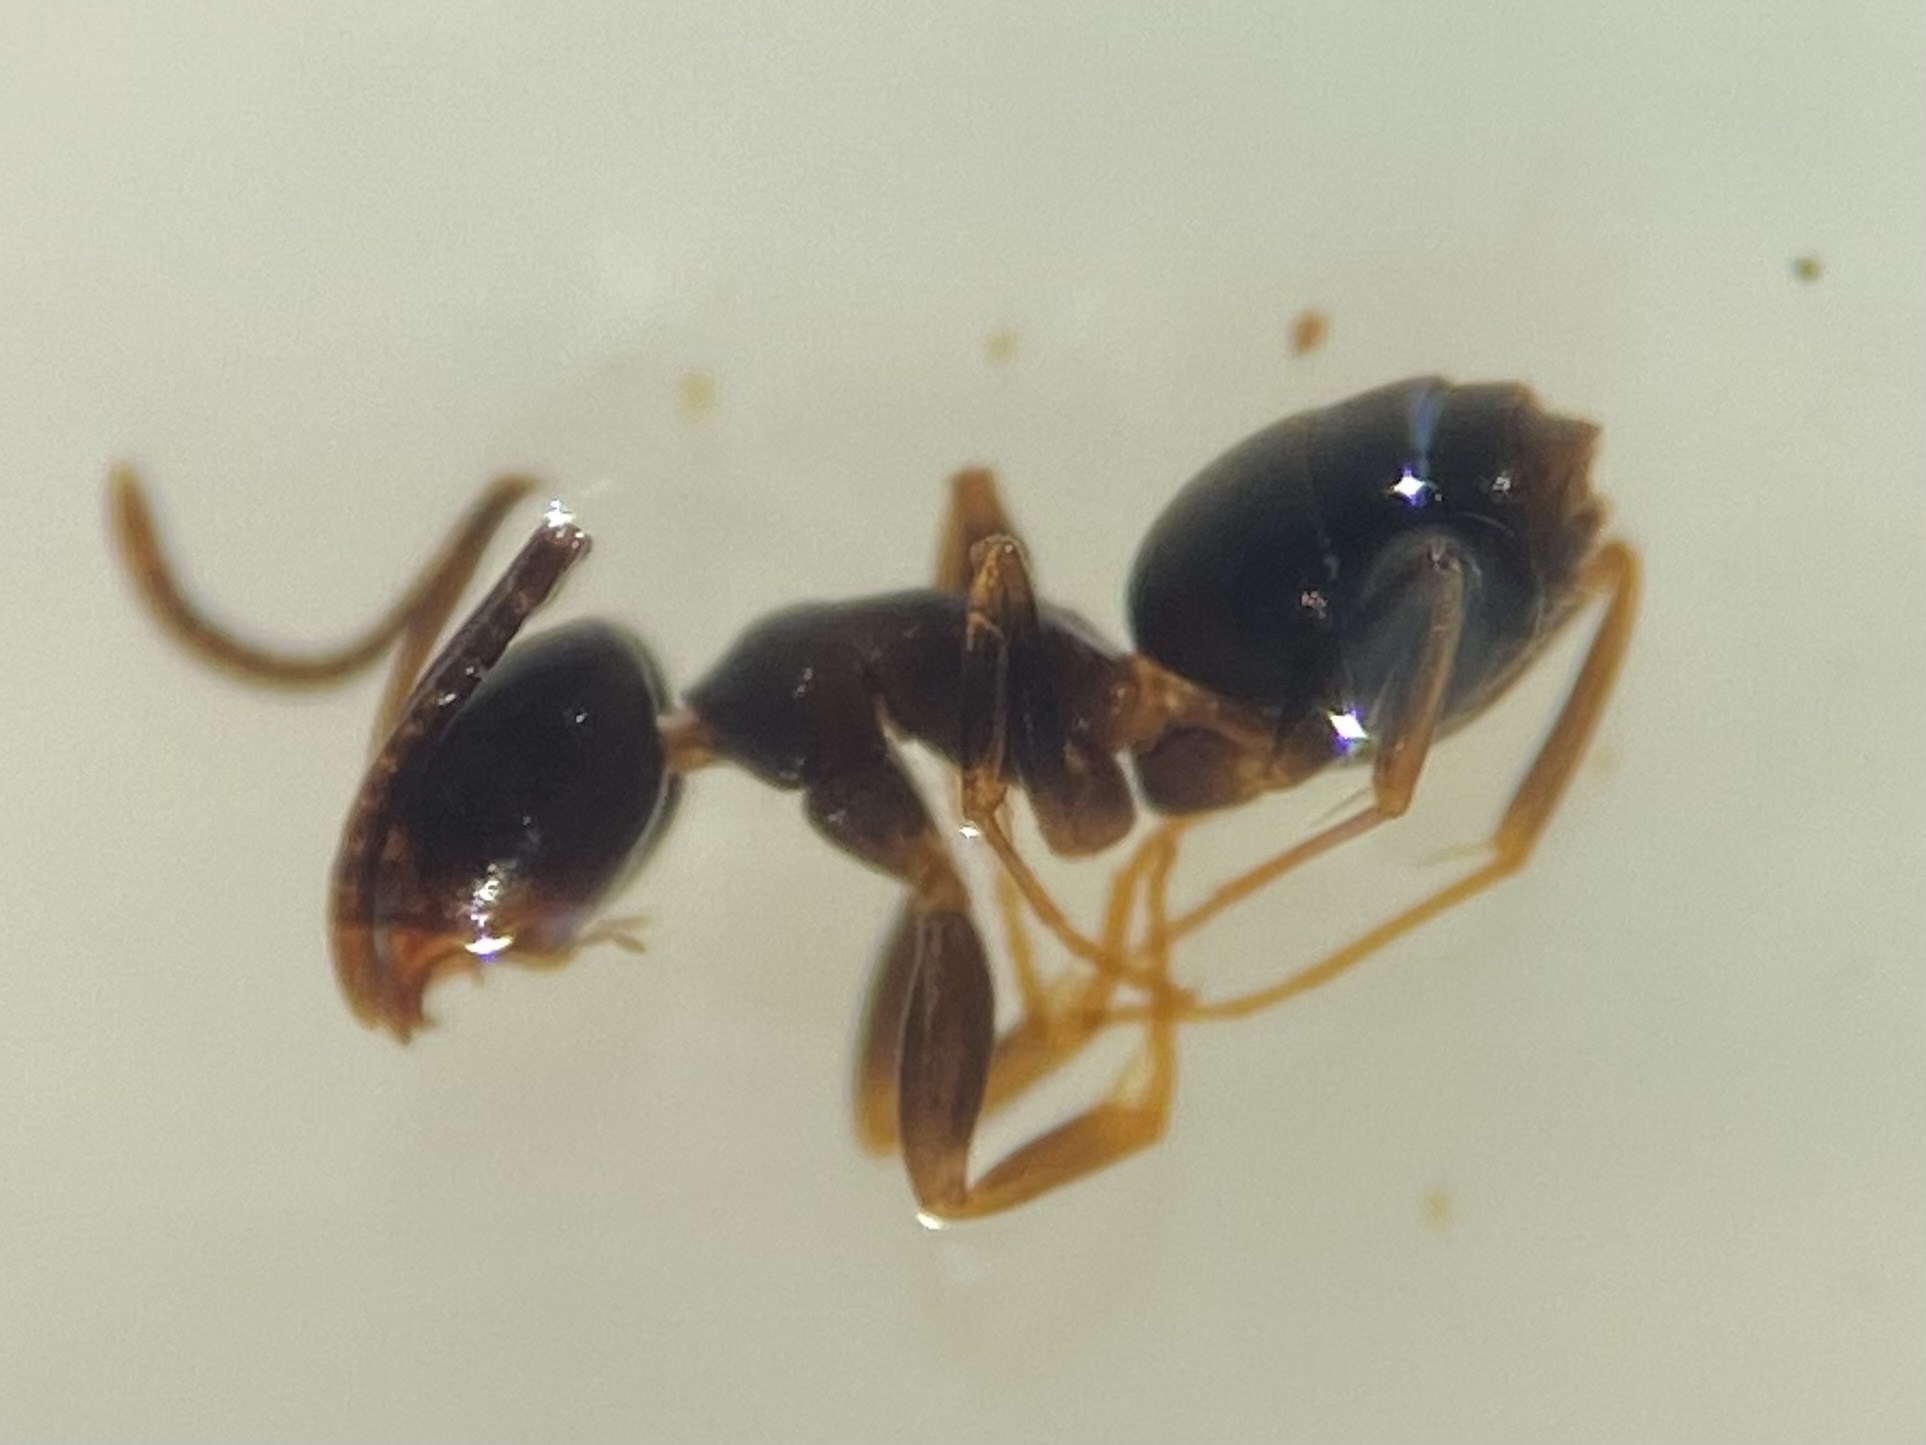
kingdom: Animalia
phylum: Arthropoda
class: Insecta
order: Hymenoptera
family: Formicidae
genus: Tapinoma
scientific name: Tapinoma sessile
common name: Odorous house ant
